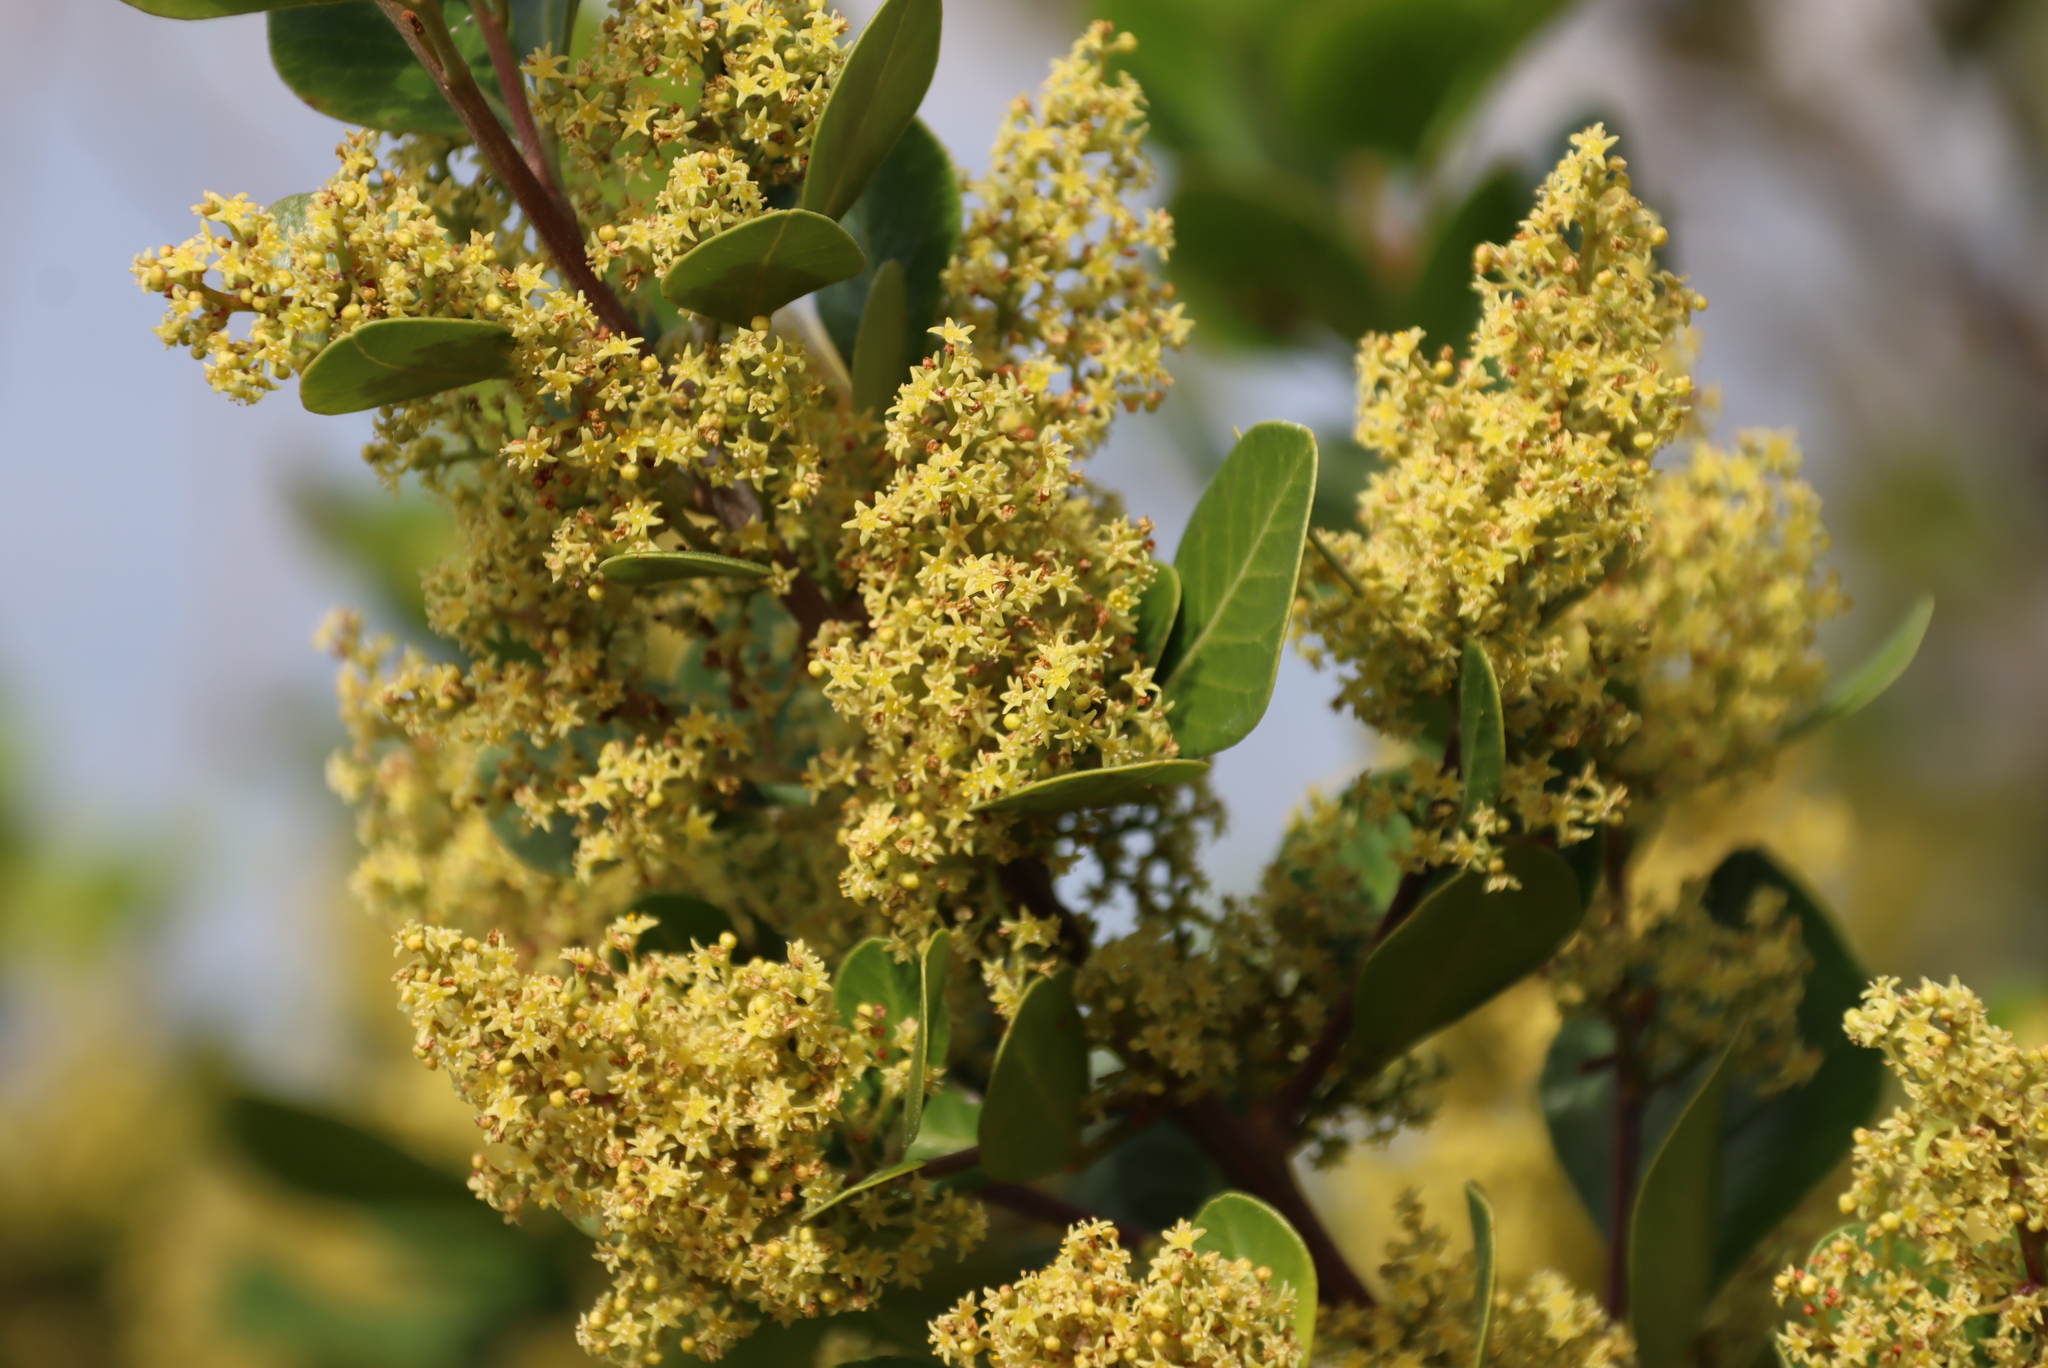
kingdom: Plantae
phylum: Tracheophyta
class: Magnoliopsida
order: Sapindales
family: Anacardiaceae
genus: Searsia
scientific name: Searsia lucida
